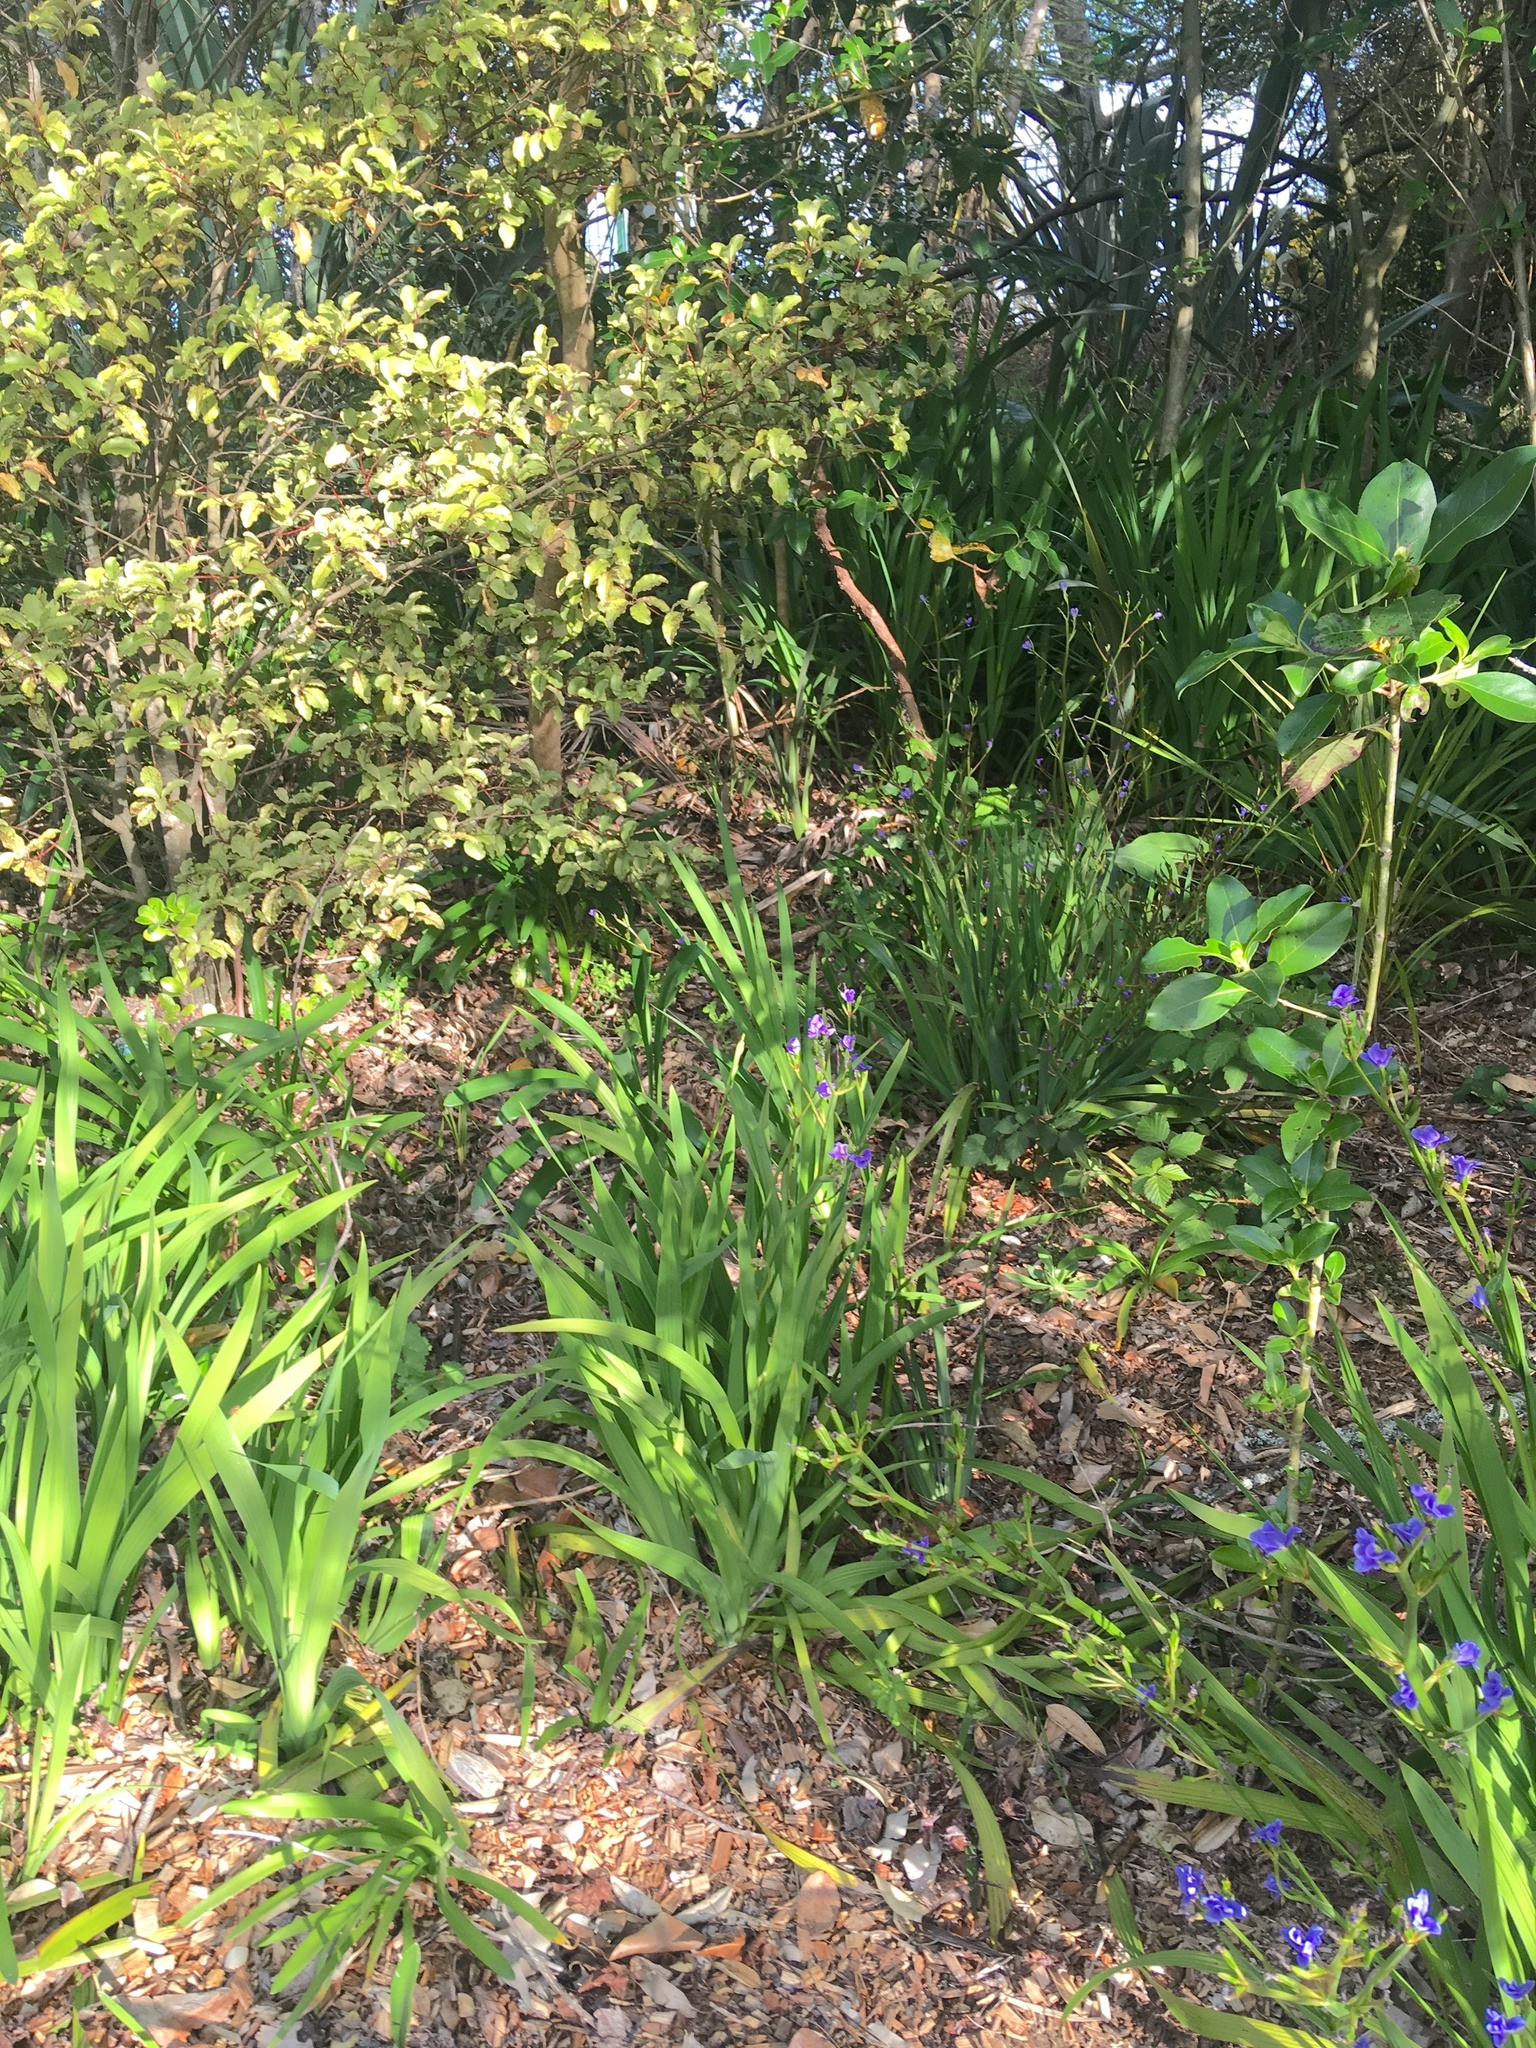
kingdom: Plantae
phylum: Tracheophyta
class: Liliopsida
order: Asparagales
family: Iridaceae
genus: Aristea
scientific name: Aristea ecklonii
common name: Blue corn-lily
